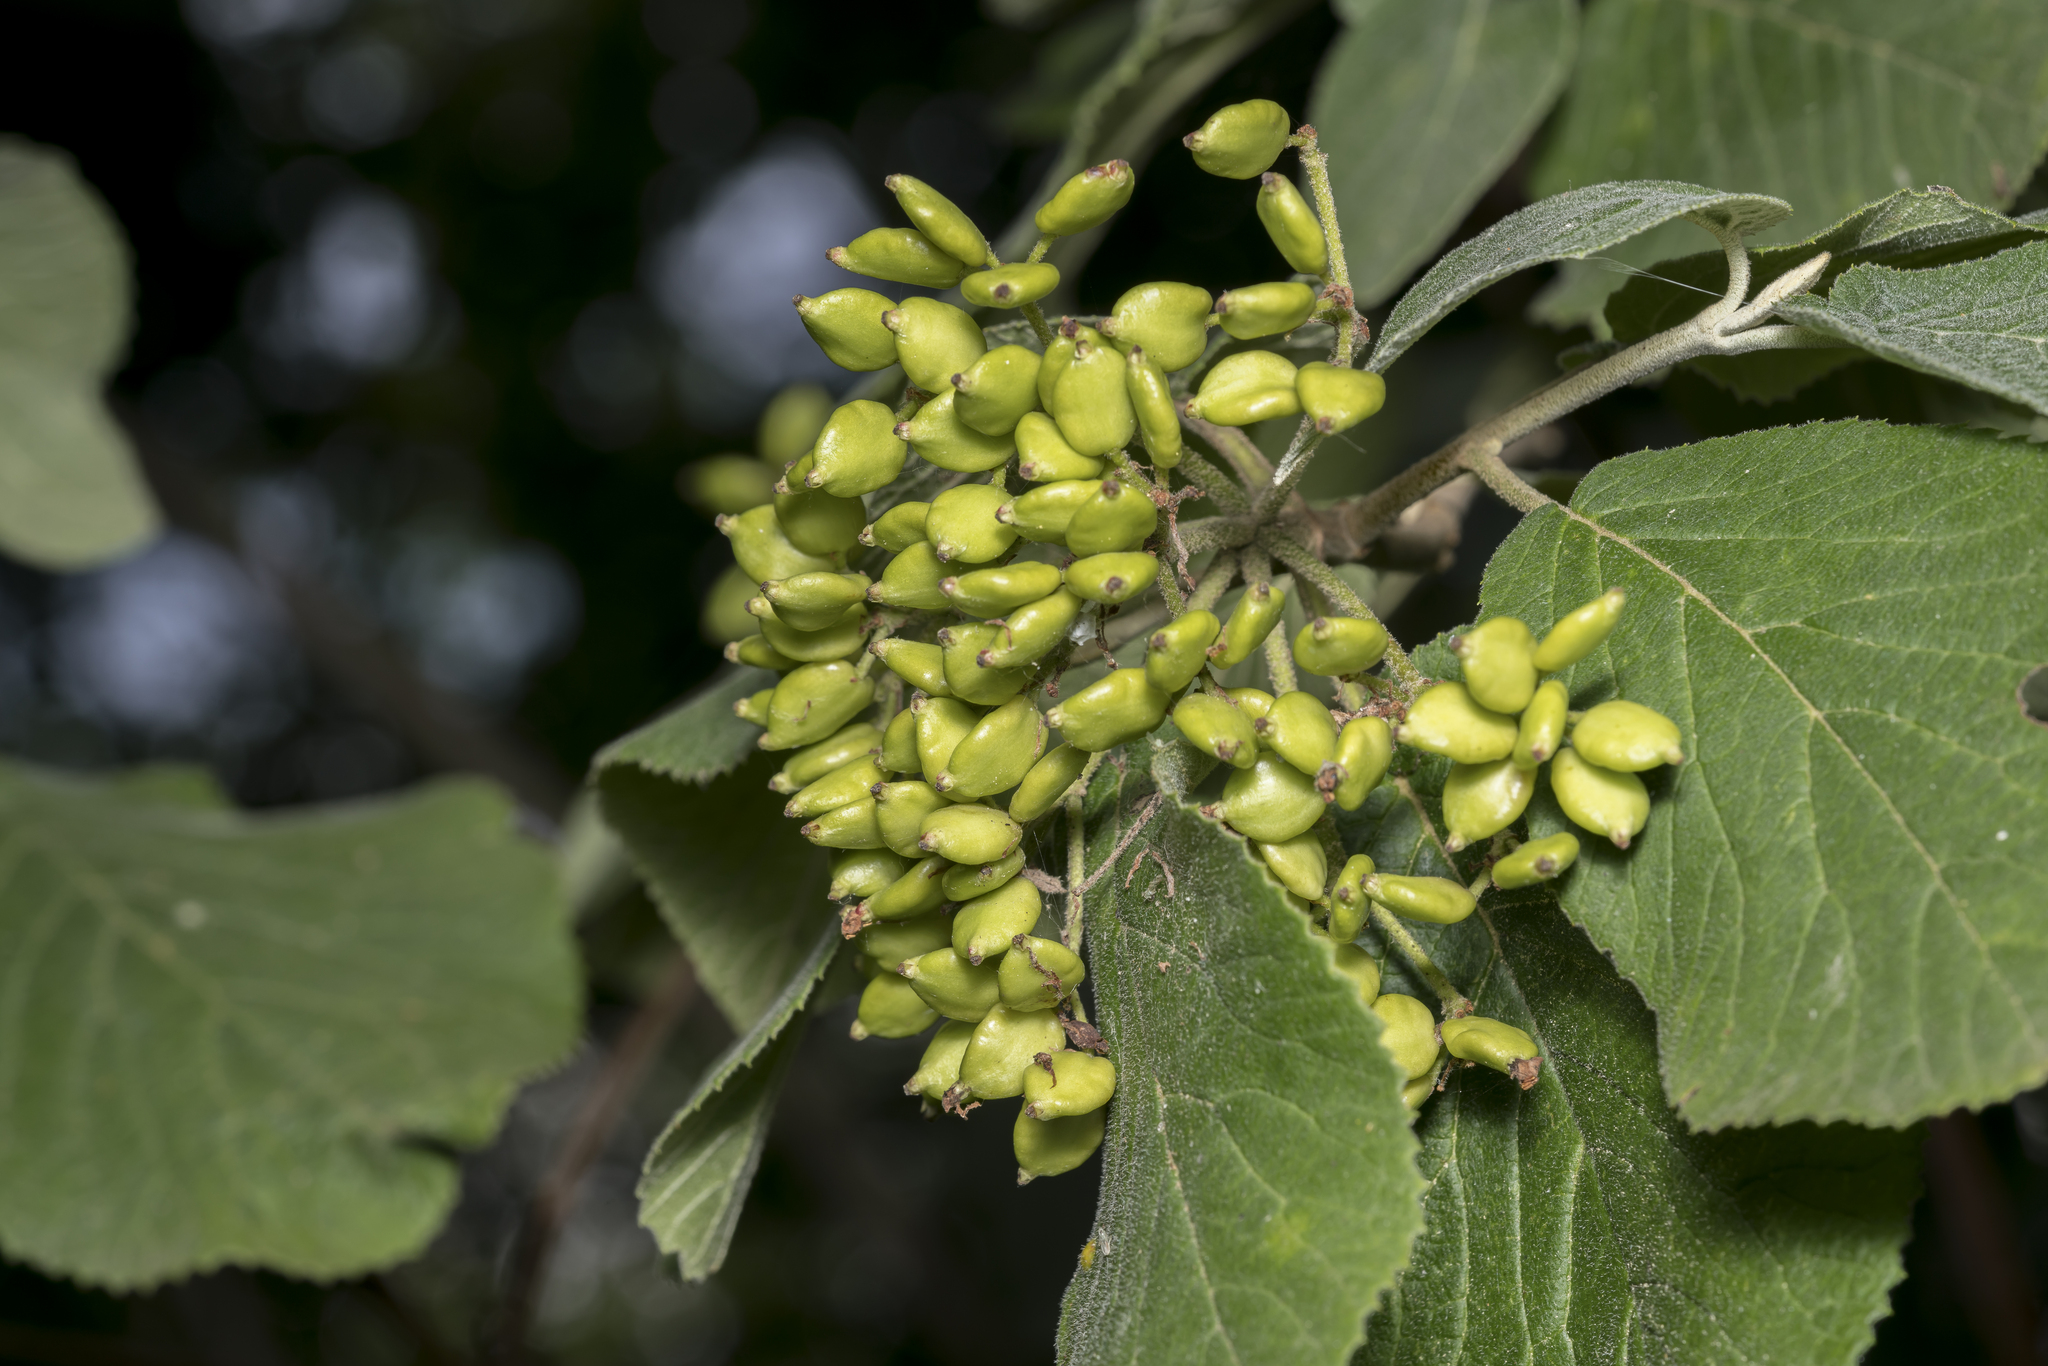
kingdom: Plantae
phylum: Tracheophyta
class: Magnoliopsida
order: Dipsacales
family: Viburnaceae
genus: Viburnum
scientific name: Viburnum lantana
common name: Wayfaring tree
